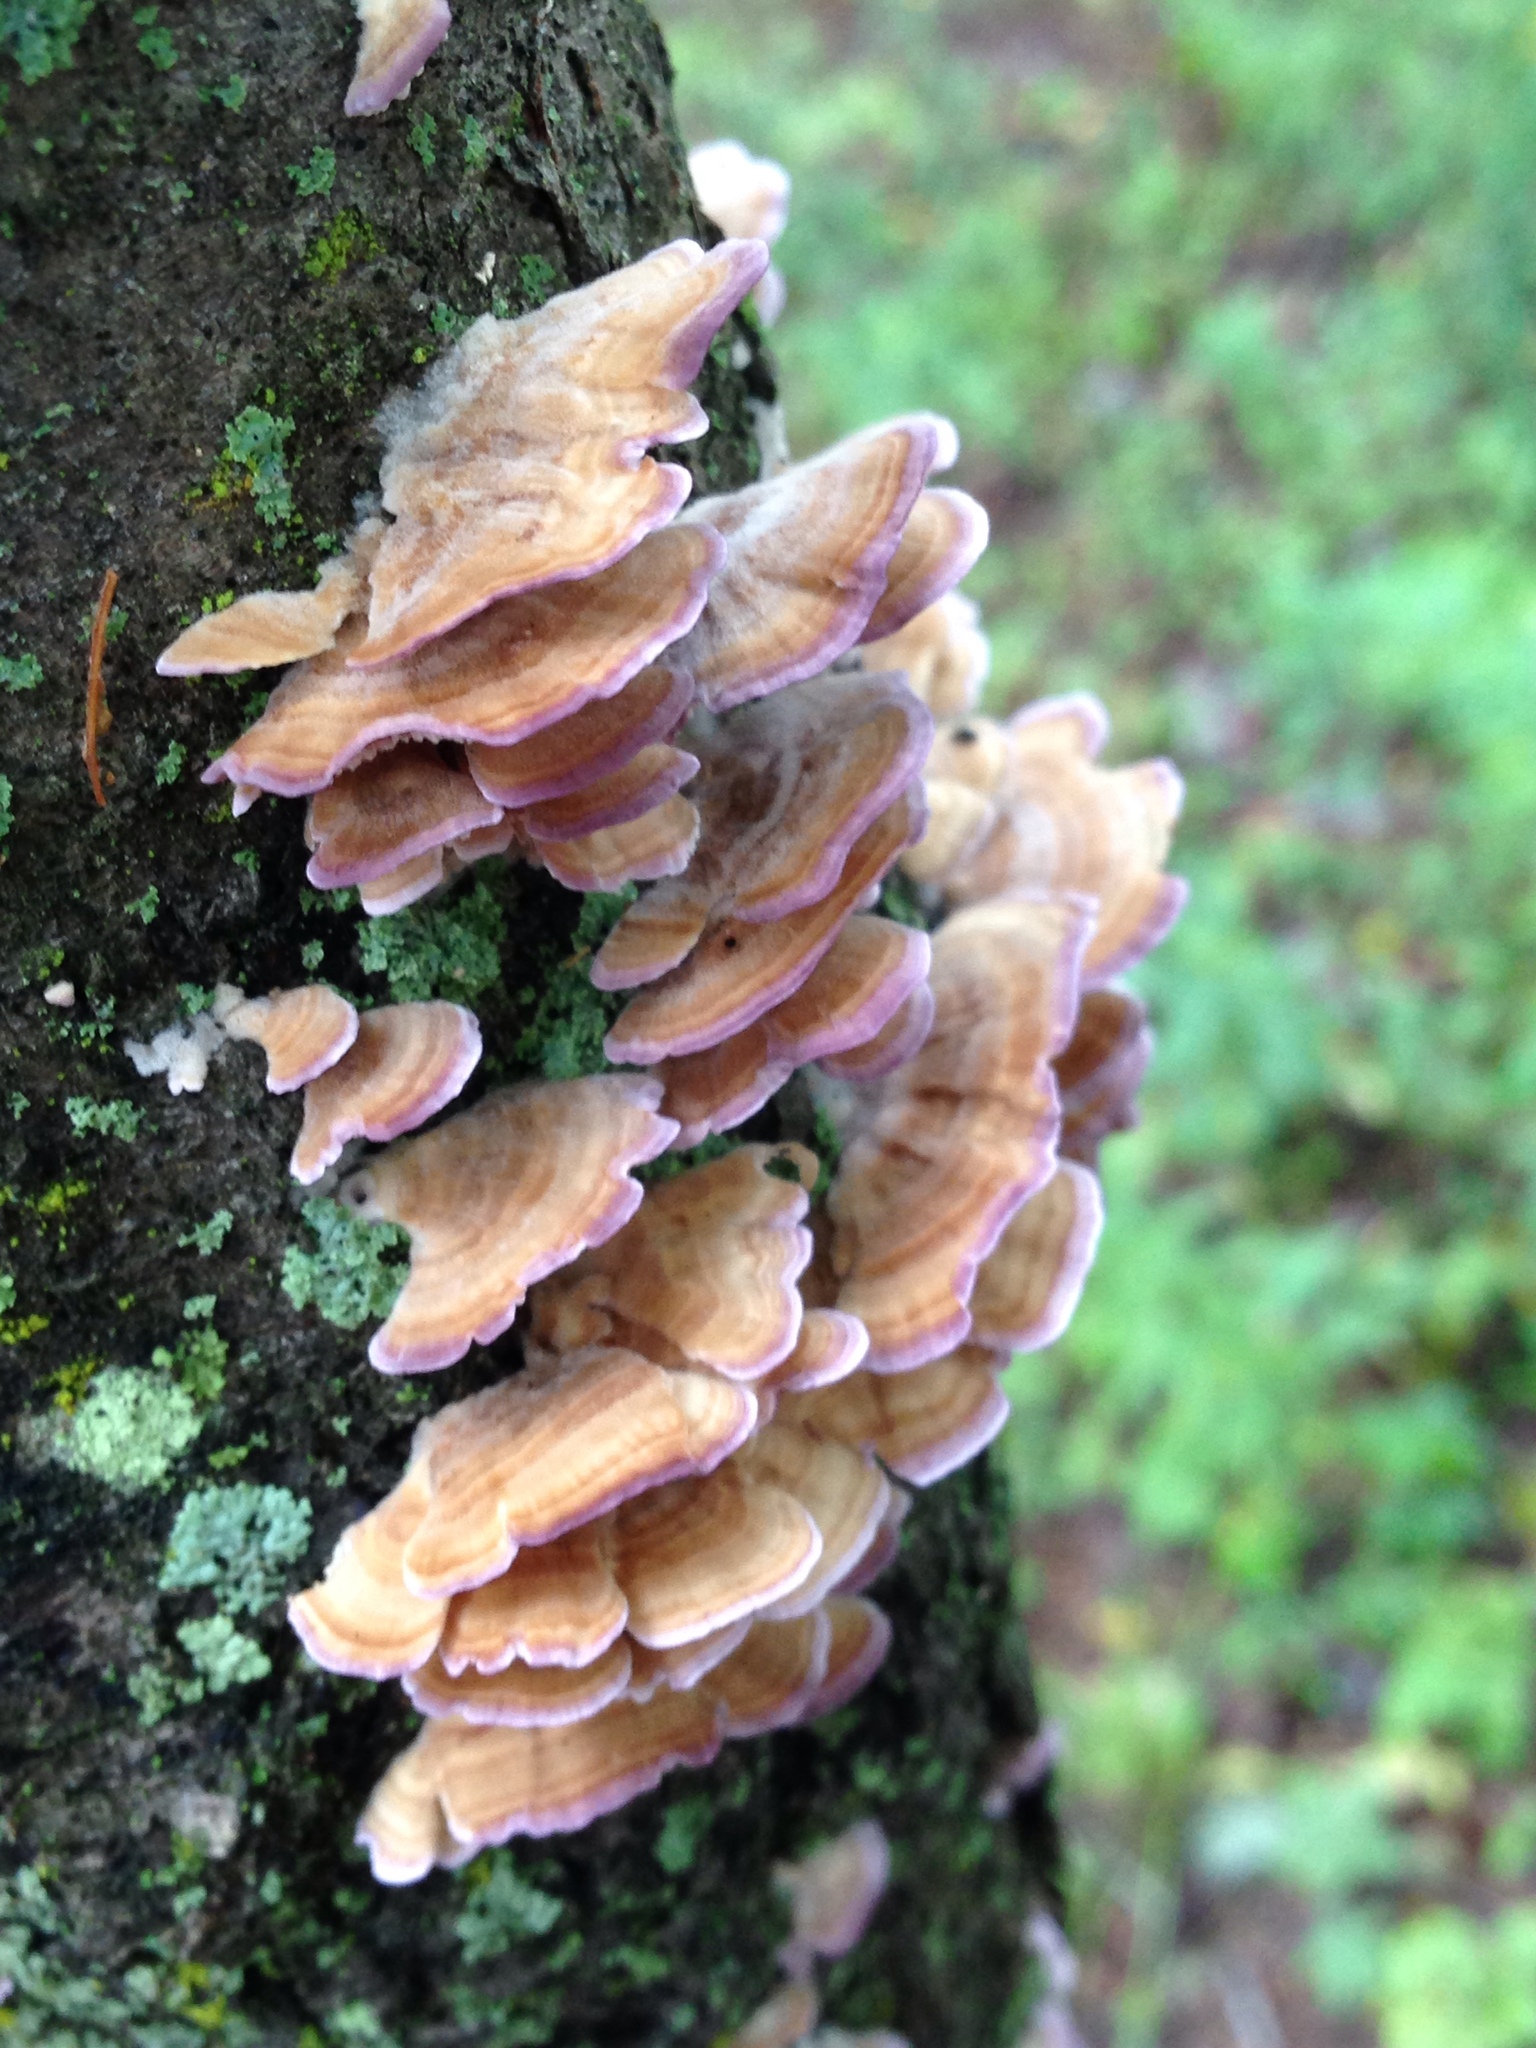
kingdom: Fungi
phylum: Basidiomycota
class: Agaricomycetes
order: Hymenochaetales
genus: Trichaptum
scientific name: Trichaptum biforme
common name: Violet-toothed polypore
